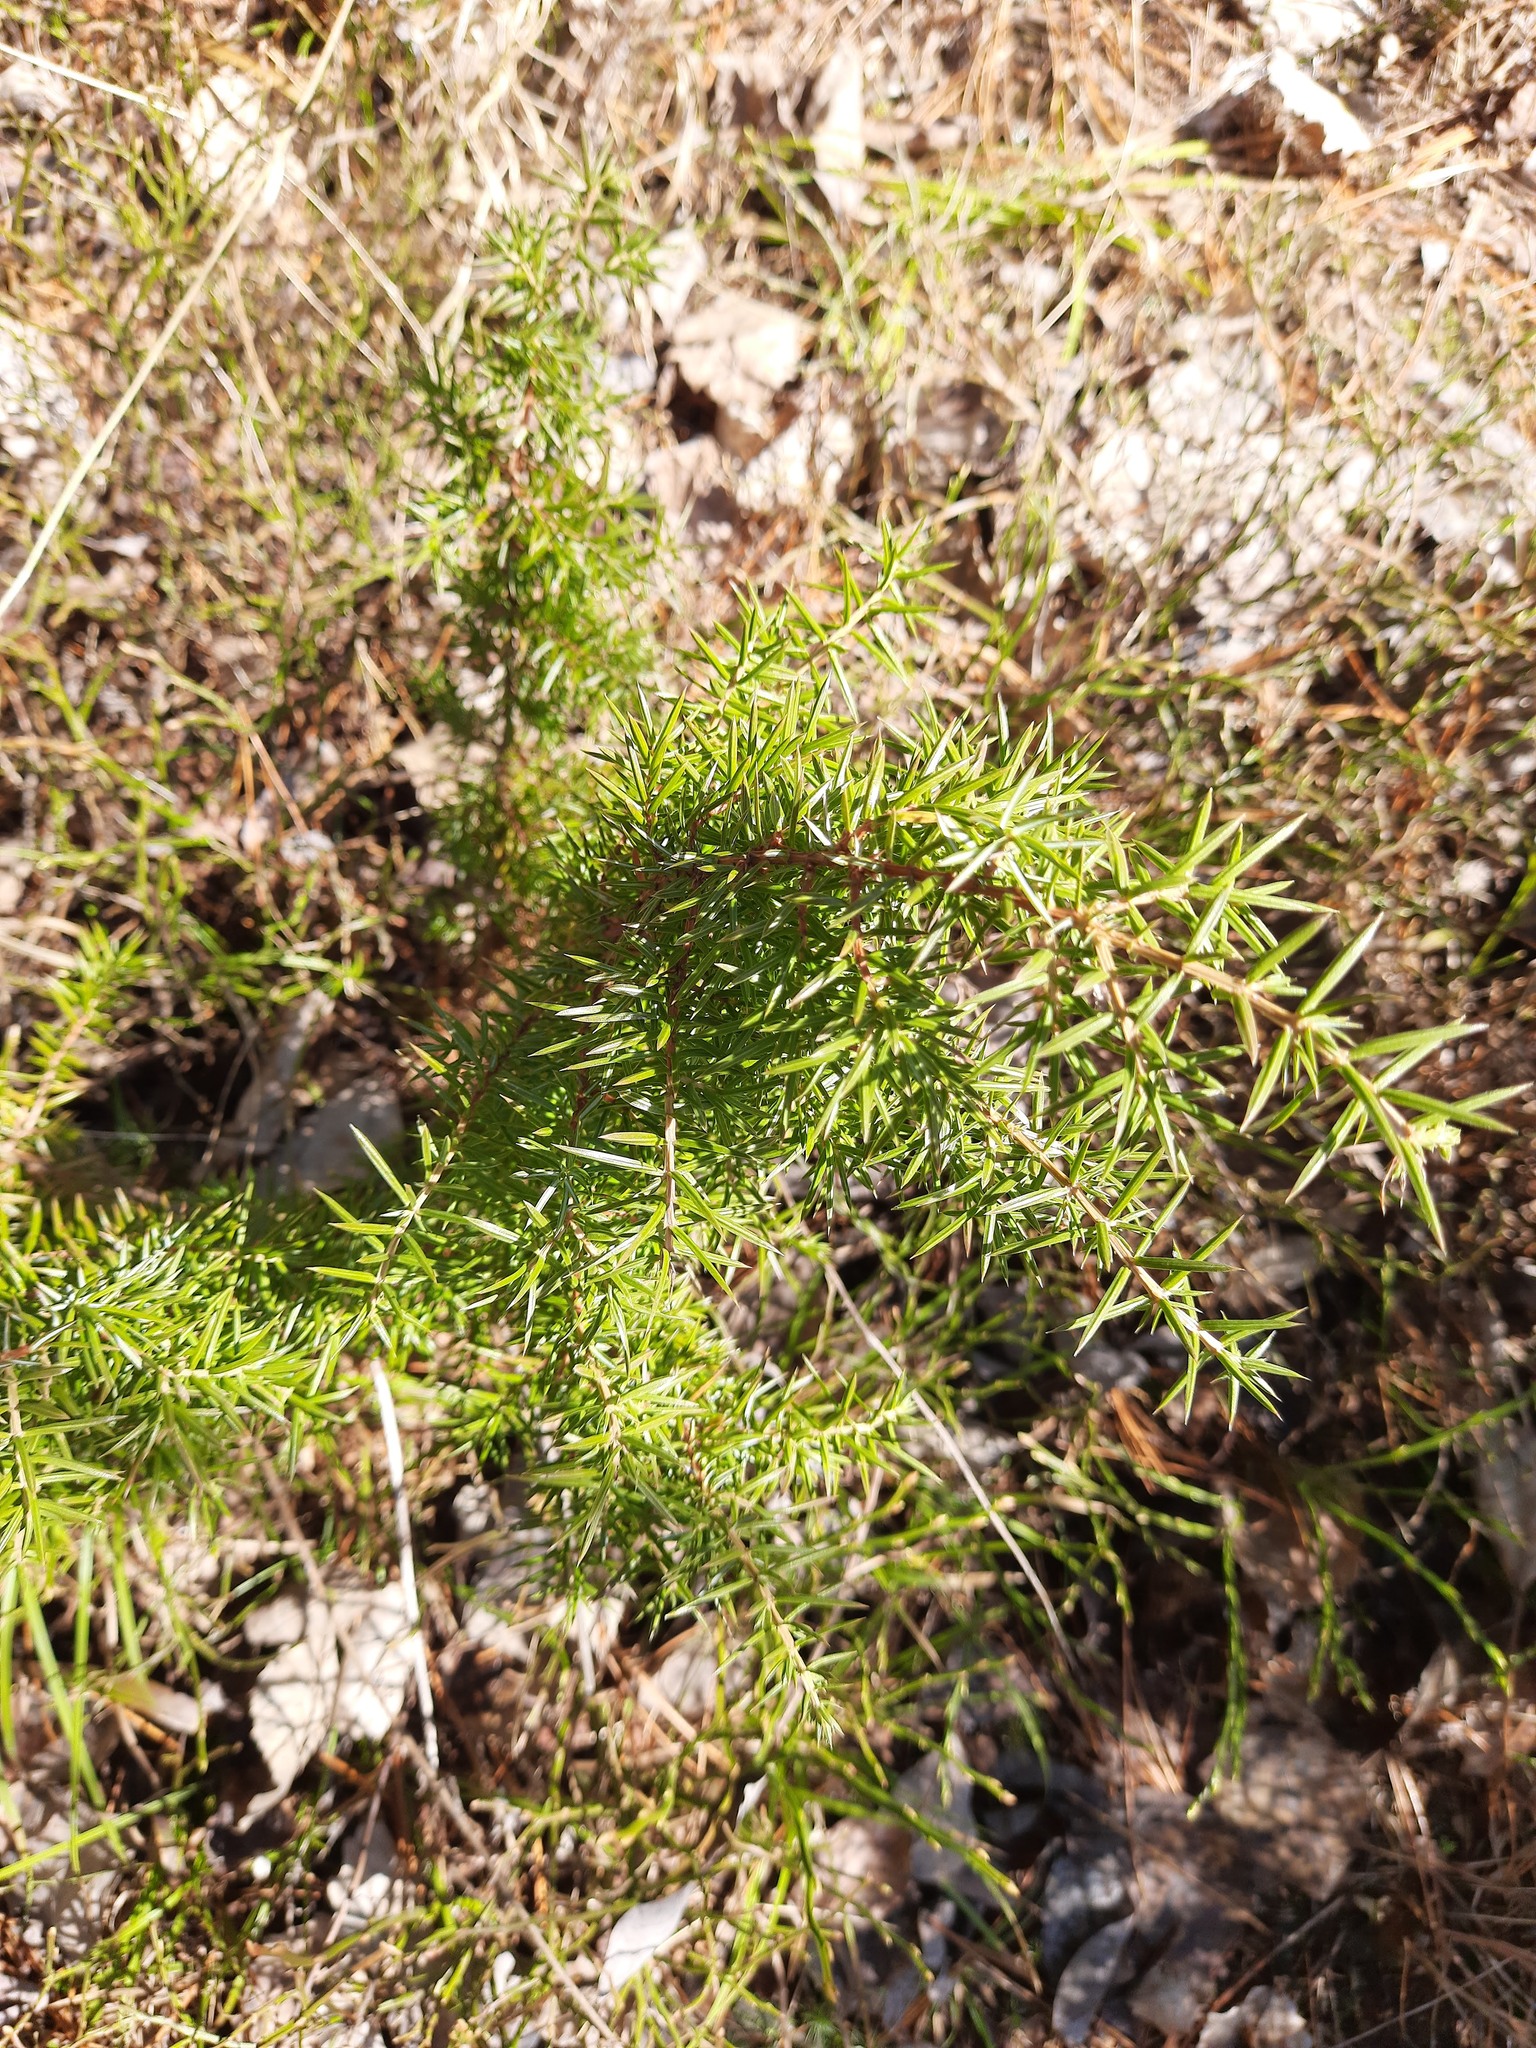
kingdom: Plantae
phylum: Tracheophyta
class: Pinopsida
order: Pinales
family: Cupressaceae
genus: Juniperus
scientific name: Juniperus communis
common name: Common juniper
